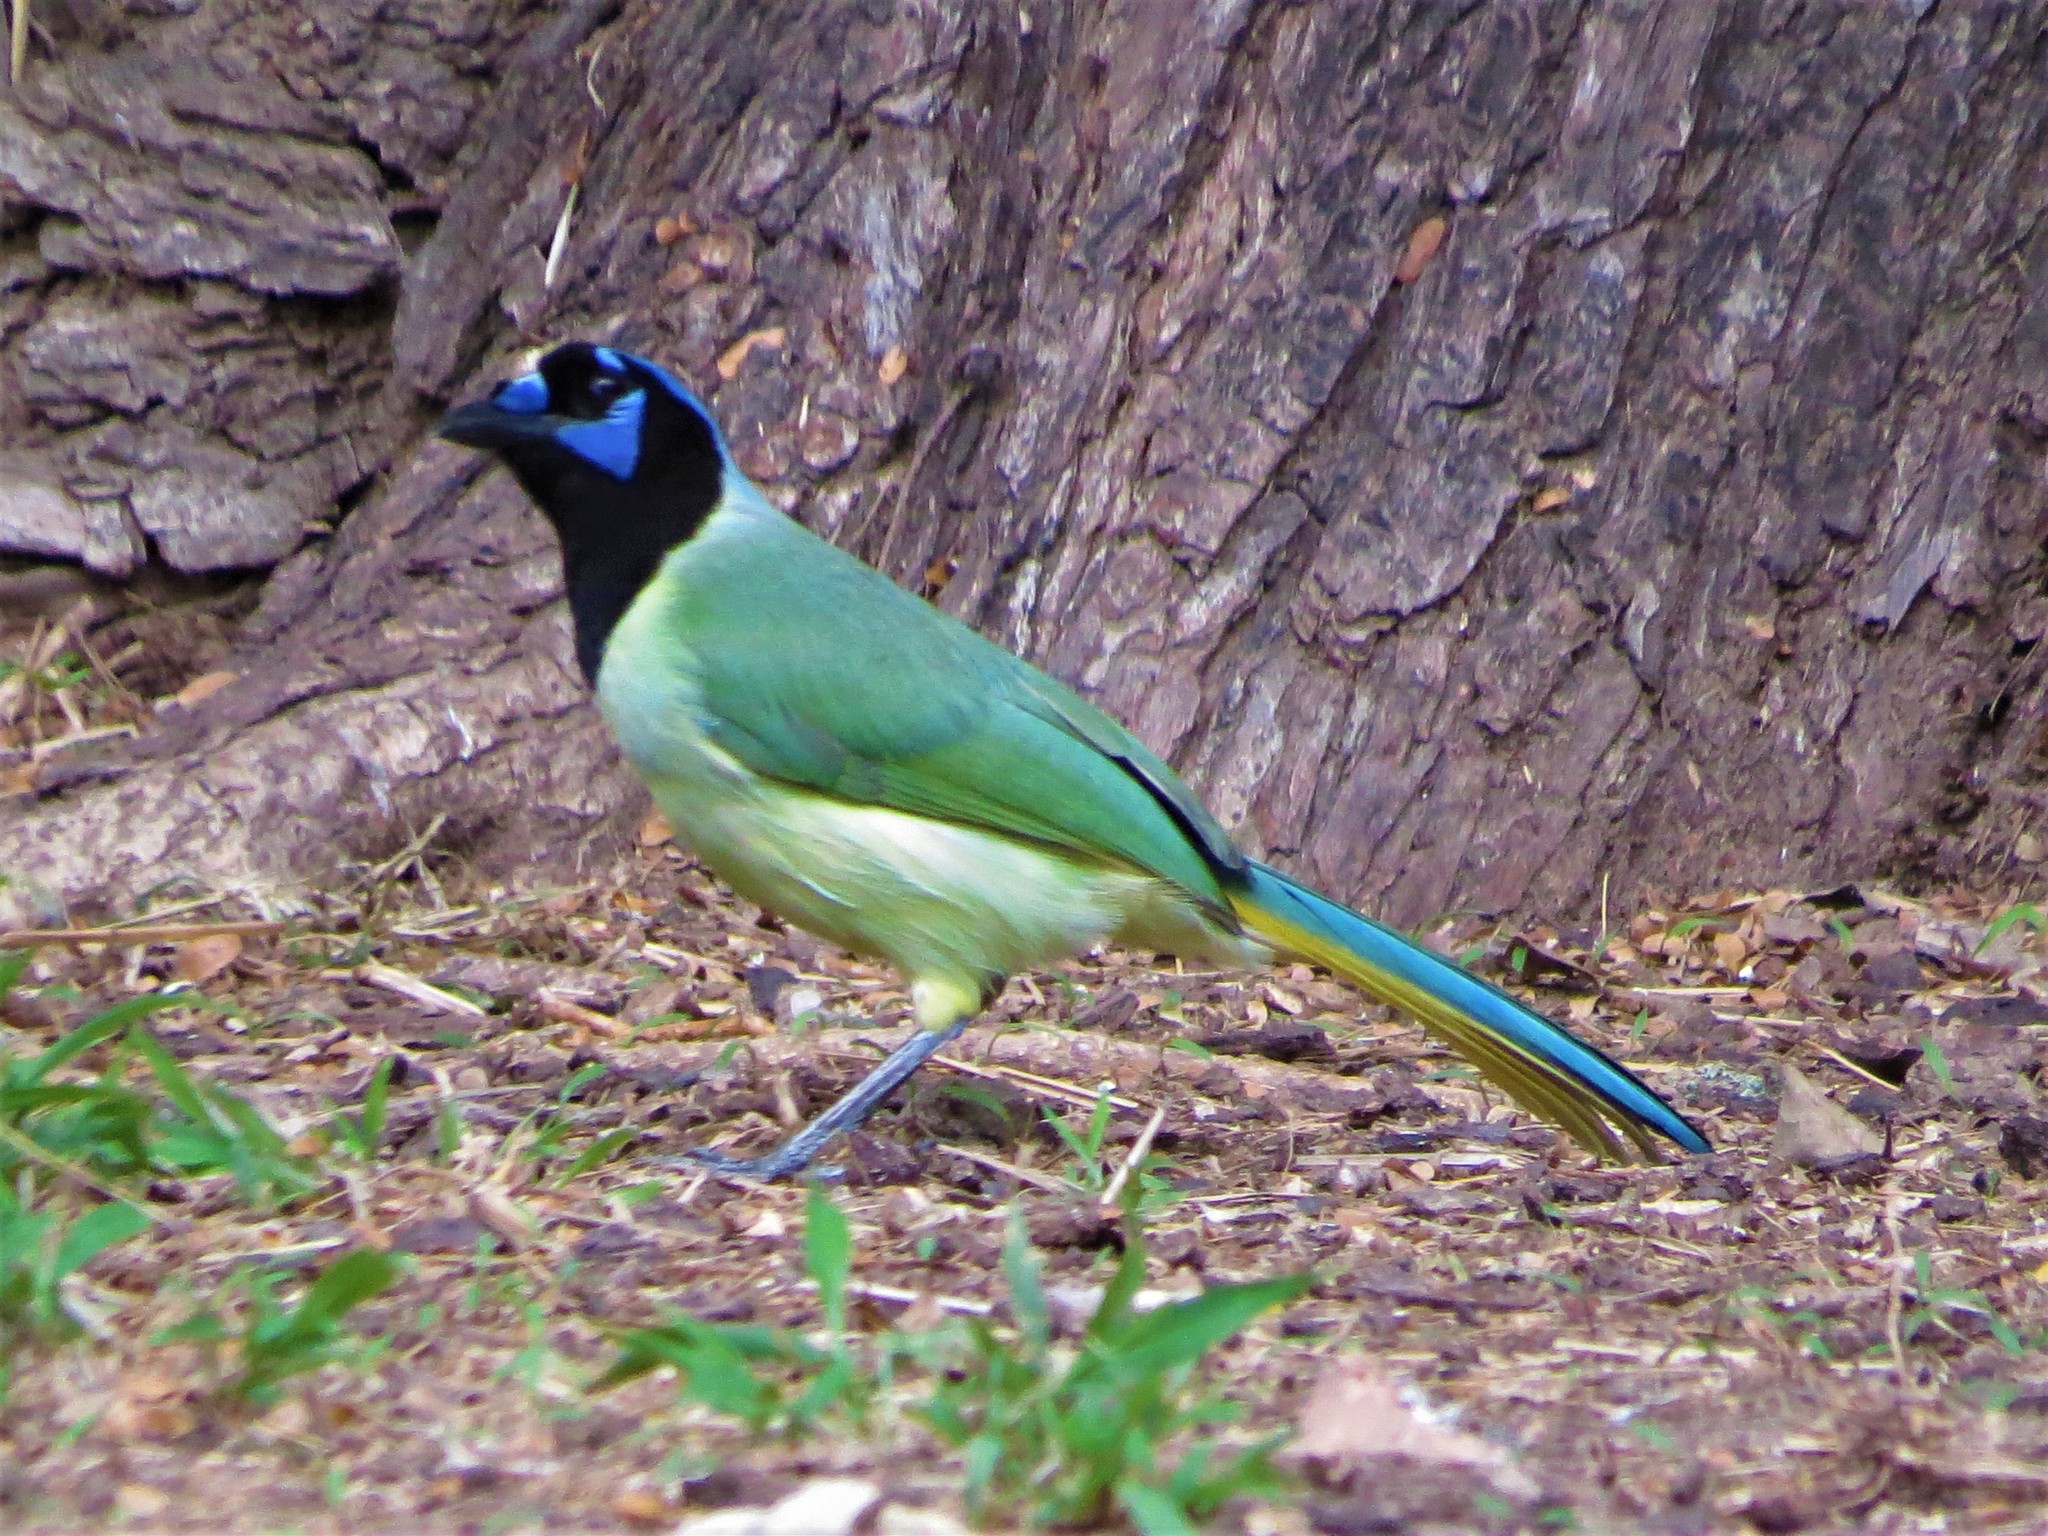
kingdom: Animalia
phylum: Chordata
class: Aves
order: Passeriformes
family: Corvidae
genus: Cyanocorax
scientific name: Cyanocorax yncas
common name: Green jay
